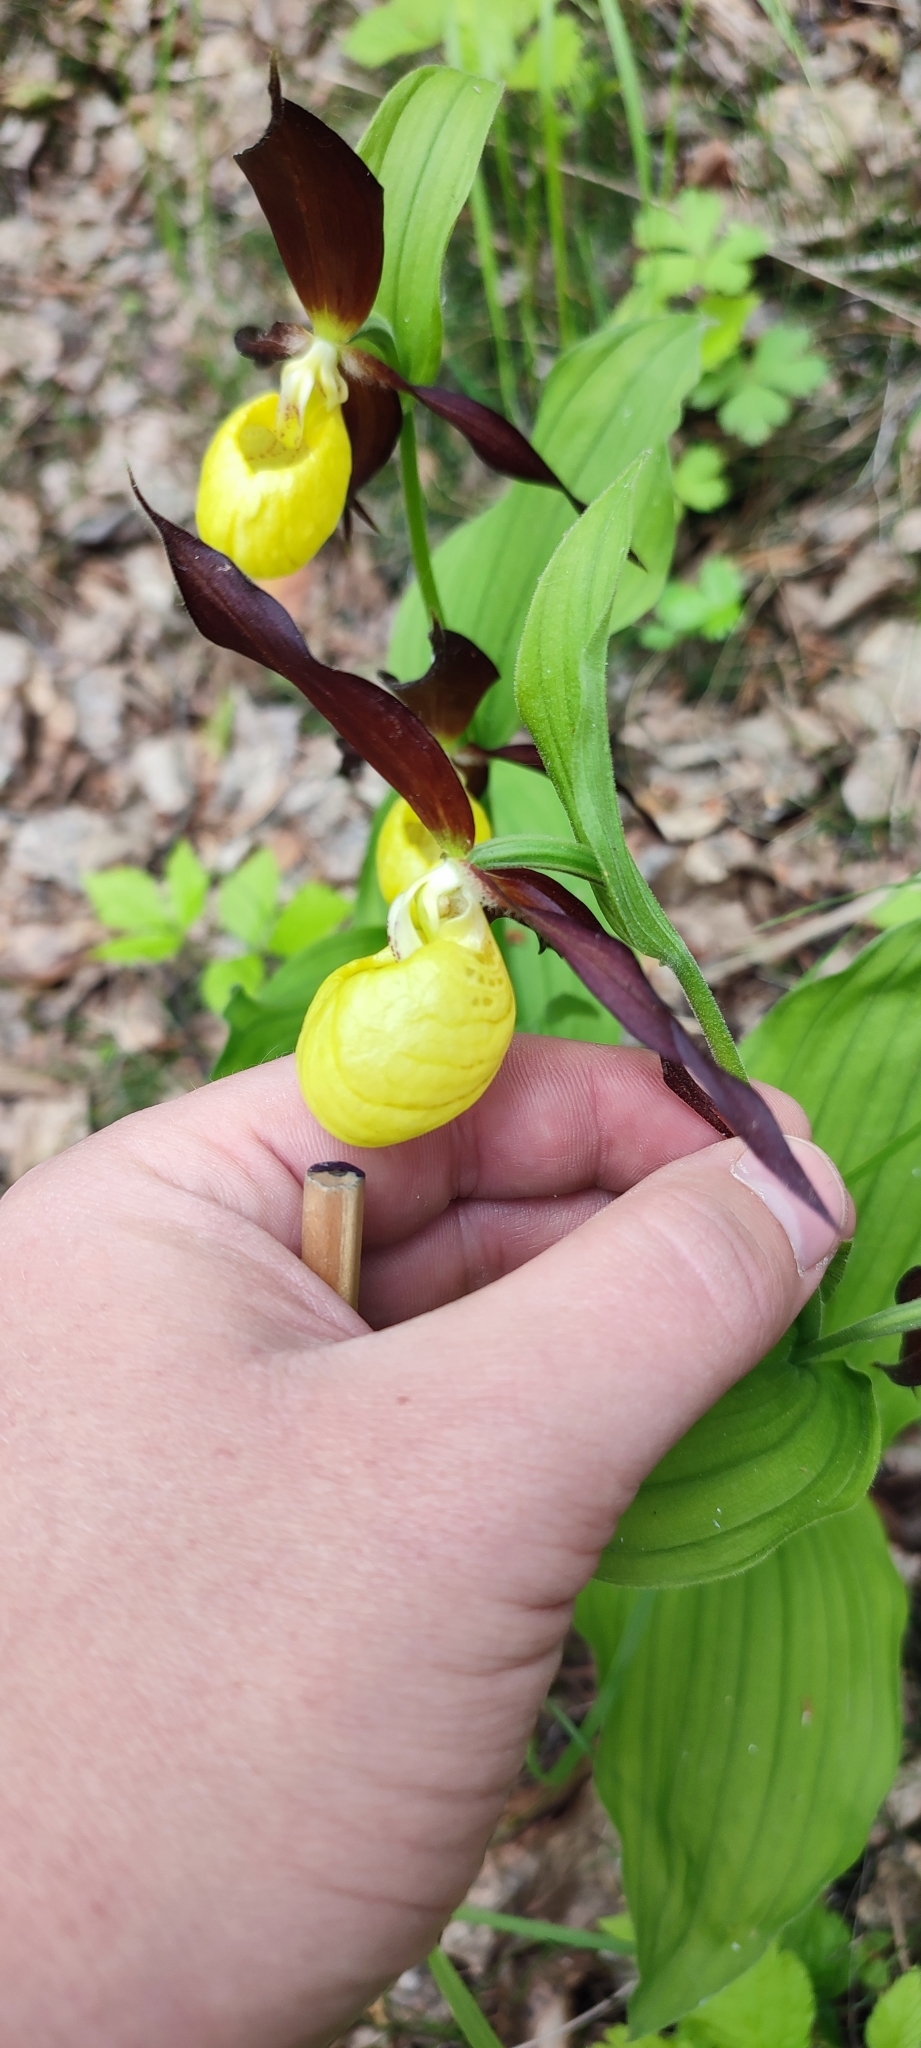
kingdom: Plantae
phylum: Tracheophyta
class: Liliopsida
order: Asparagales
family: Orchidaceae
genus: Cypripedium
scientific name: Cypripedium calceolus
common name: Lady's-slipper
